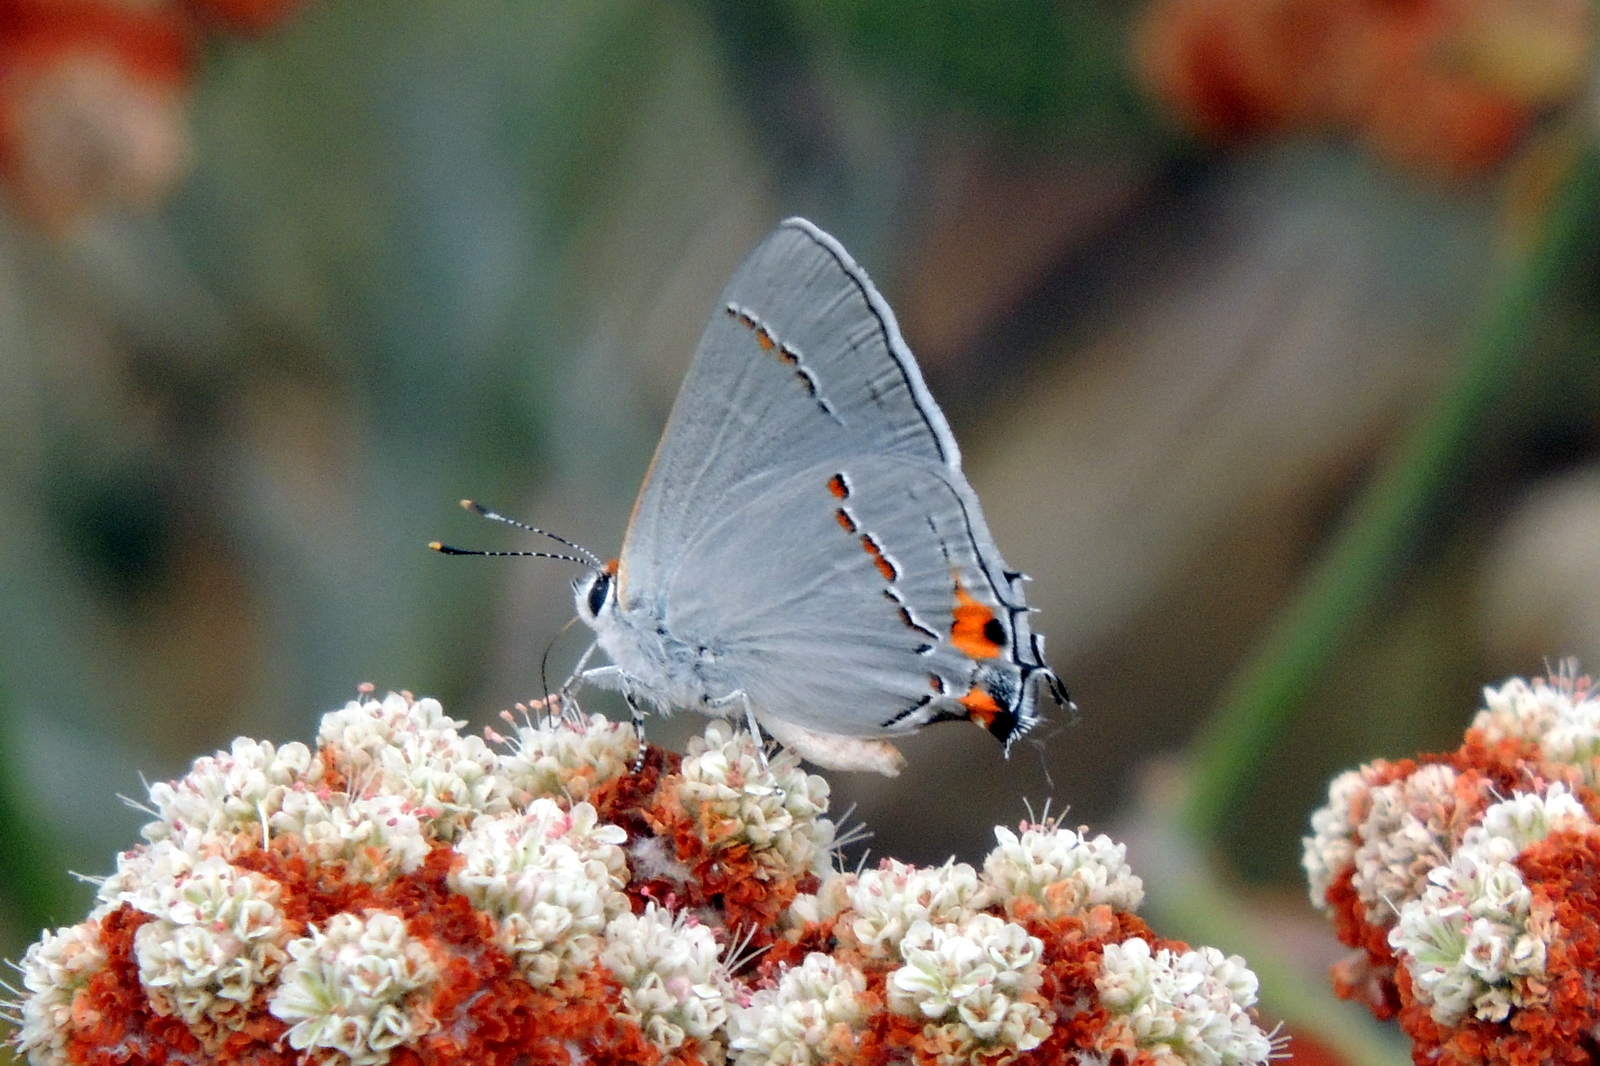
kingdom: Animalia
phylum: Arthropoda
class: Insecta
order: Lepidoptera
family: Lycaenidae
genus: Strymon
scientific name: Strymon melinus
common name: Gray hairstreak
